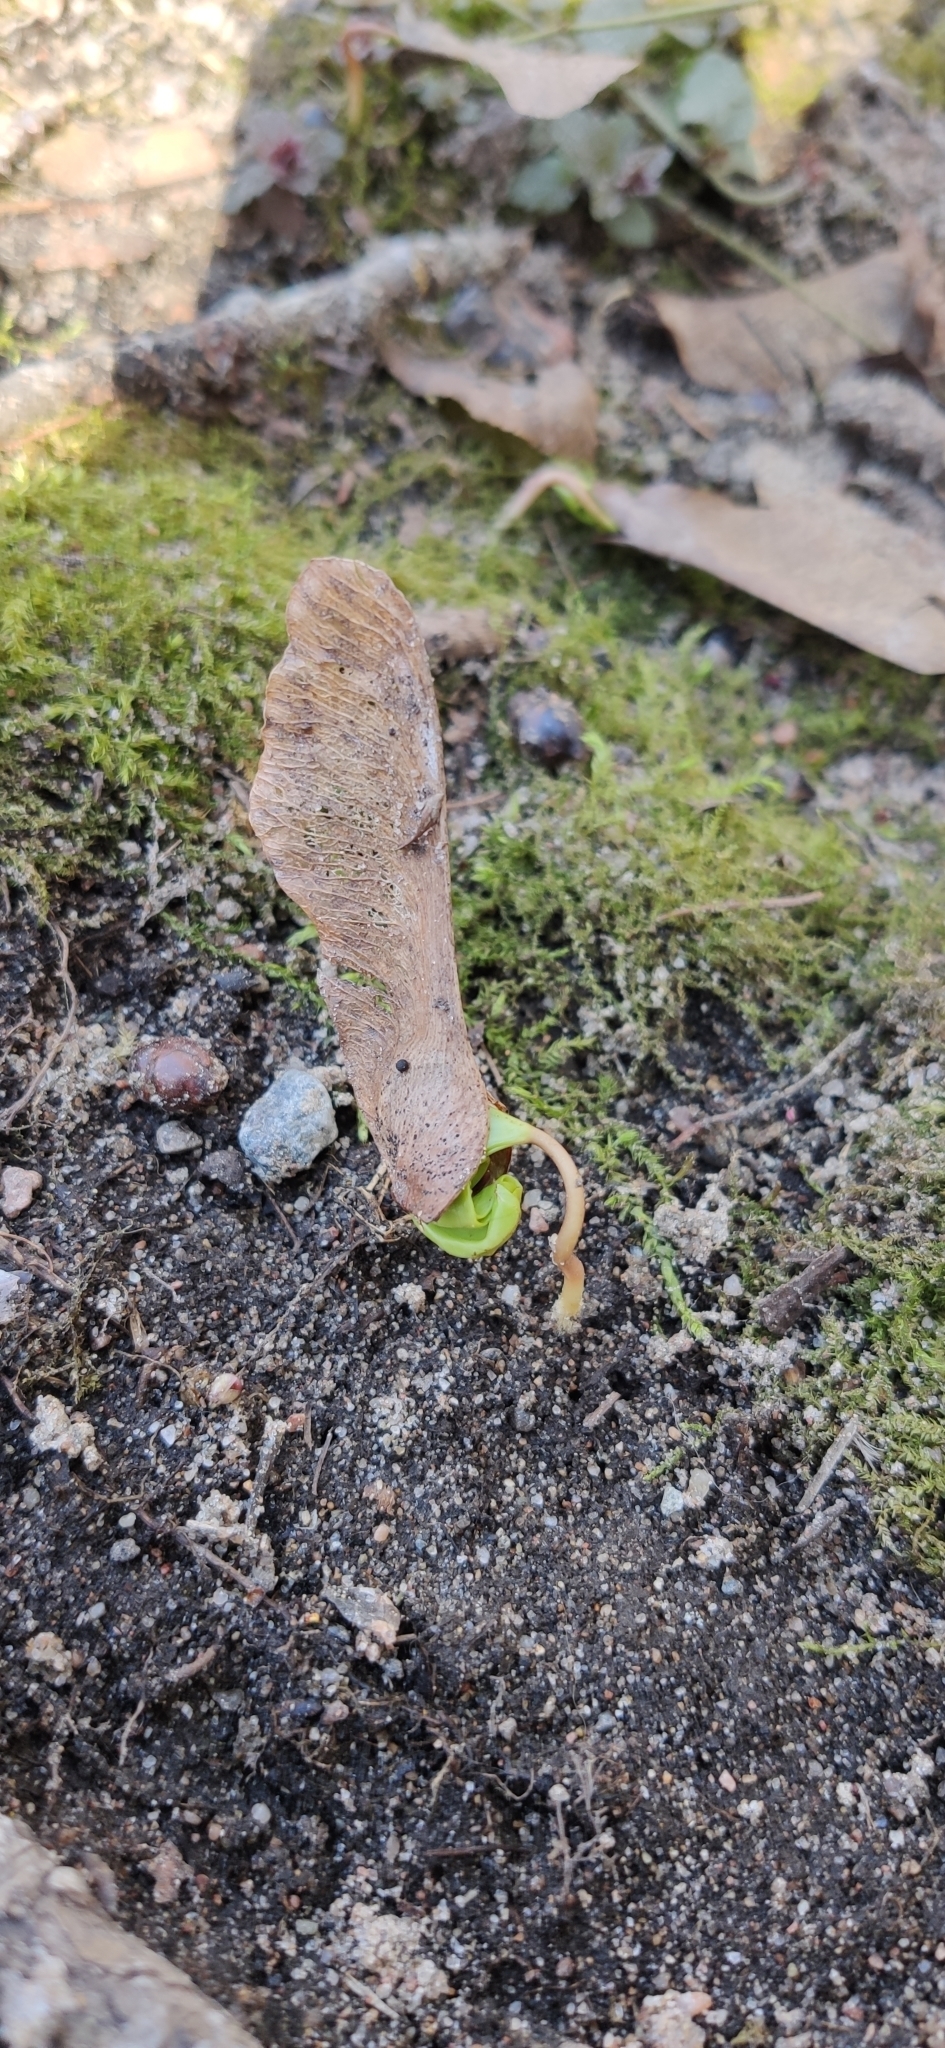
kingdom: Plantae
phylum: Tracheophyta
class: Magnoliopsida
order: Sapindales
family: Sapindaceae
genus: Acer
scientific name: Acer platanoides
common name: Norway maple
